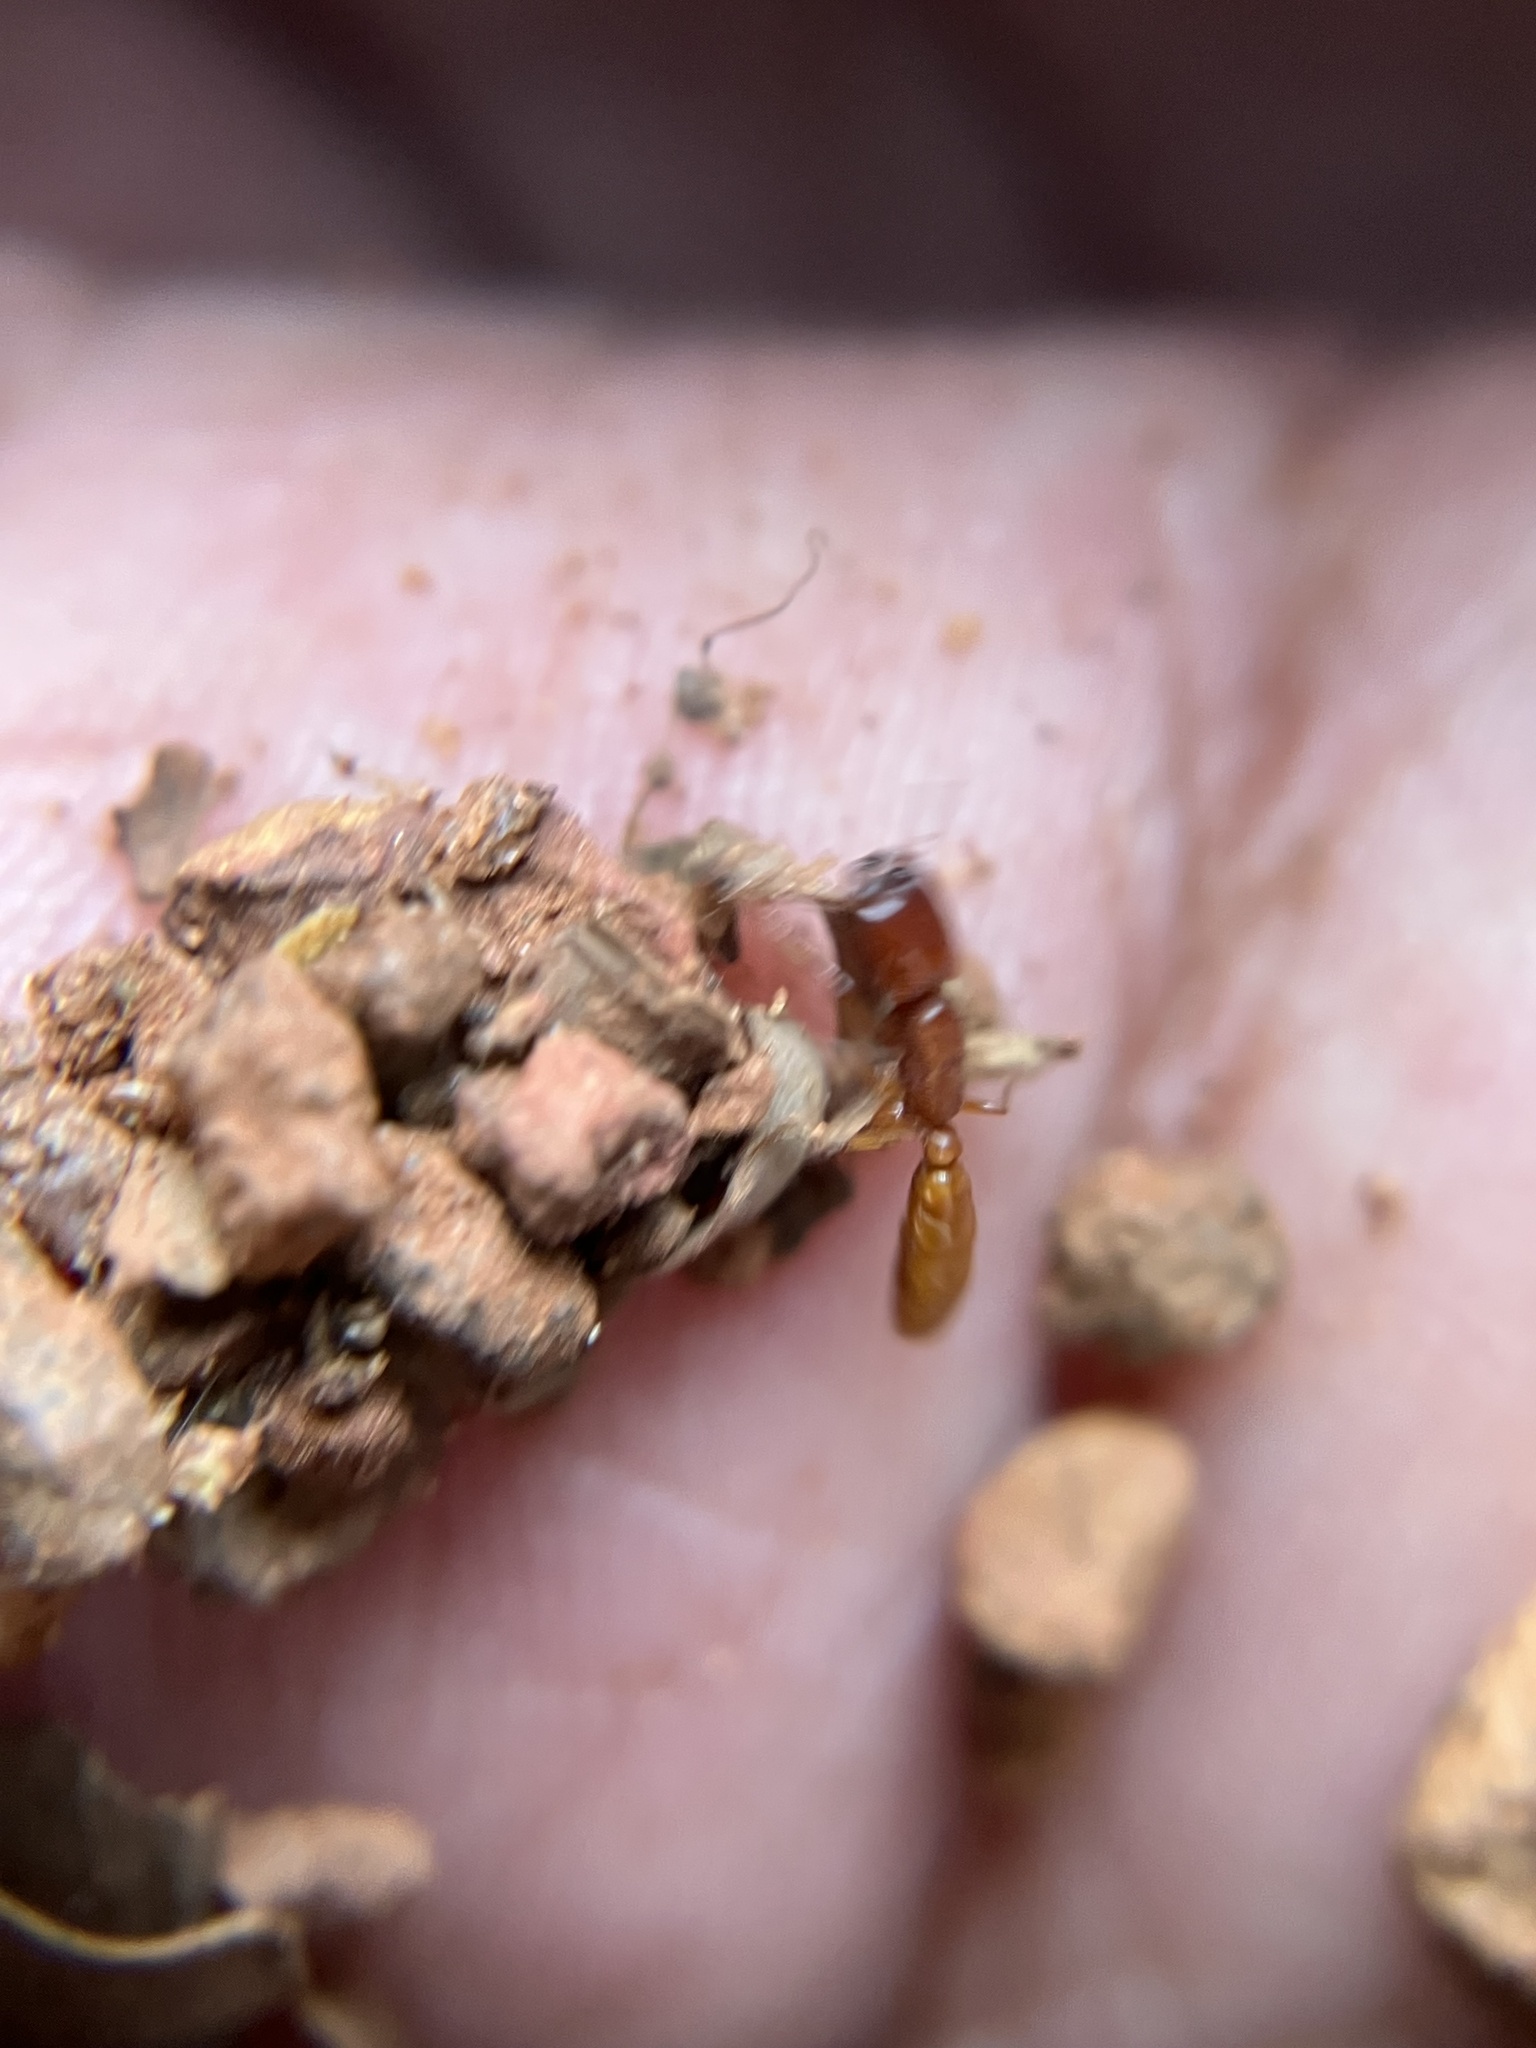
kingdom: Animalia
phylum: Arthropoda
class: Insecta
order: Hymenoptera
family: Formicidae
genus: Dorylus
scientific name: Dorylus labiatus
